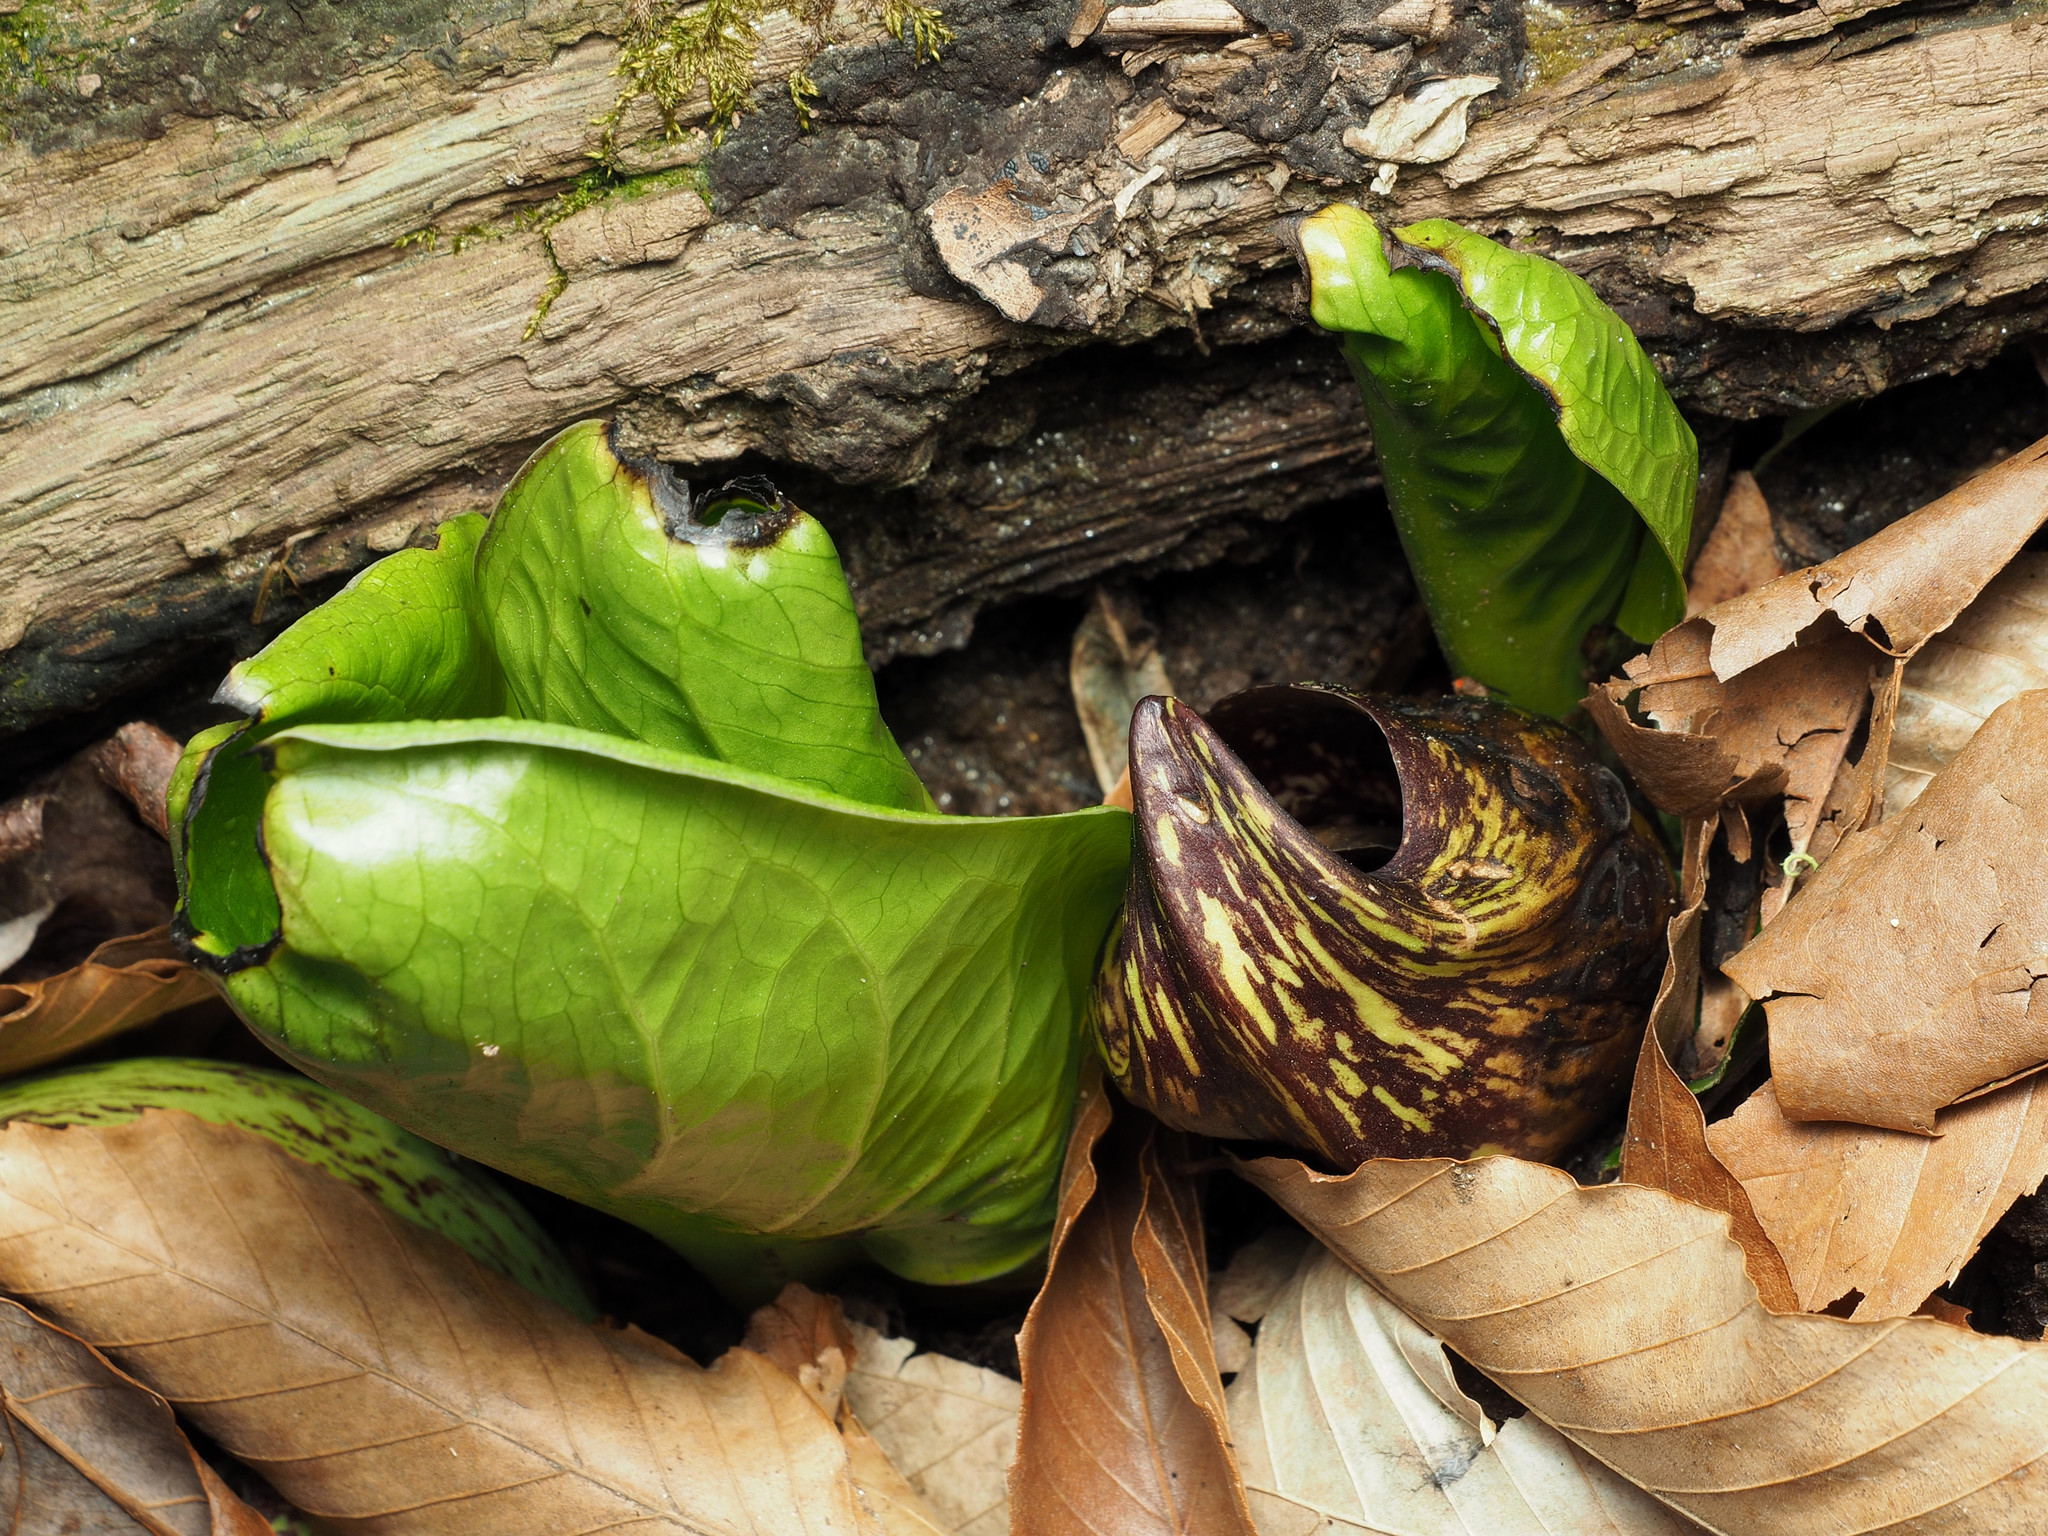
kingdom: Plantae
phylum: Tracheophyta
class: Liliopsida
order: Alismatales
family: Araceae
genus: Symplocarpus
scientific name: Symplocarpus foetidus
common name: Eastern skunk cabbage
